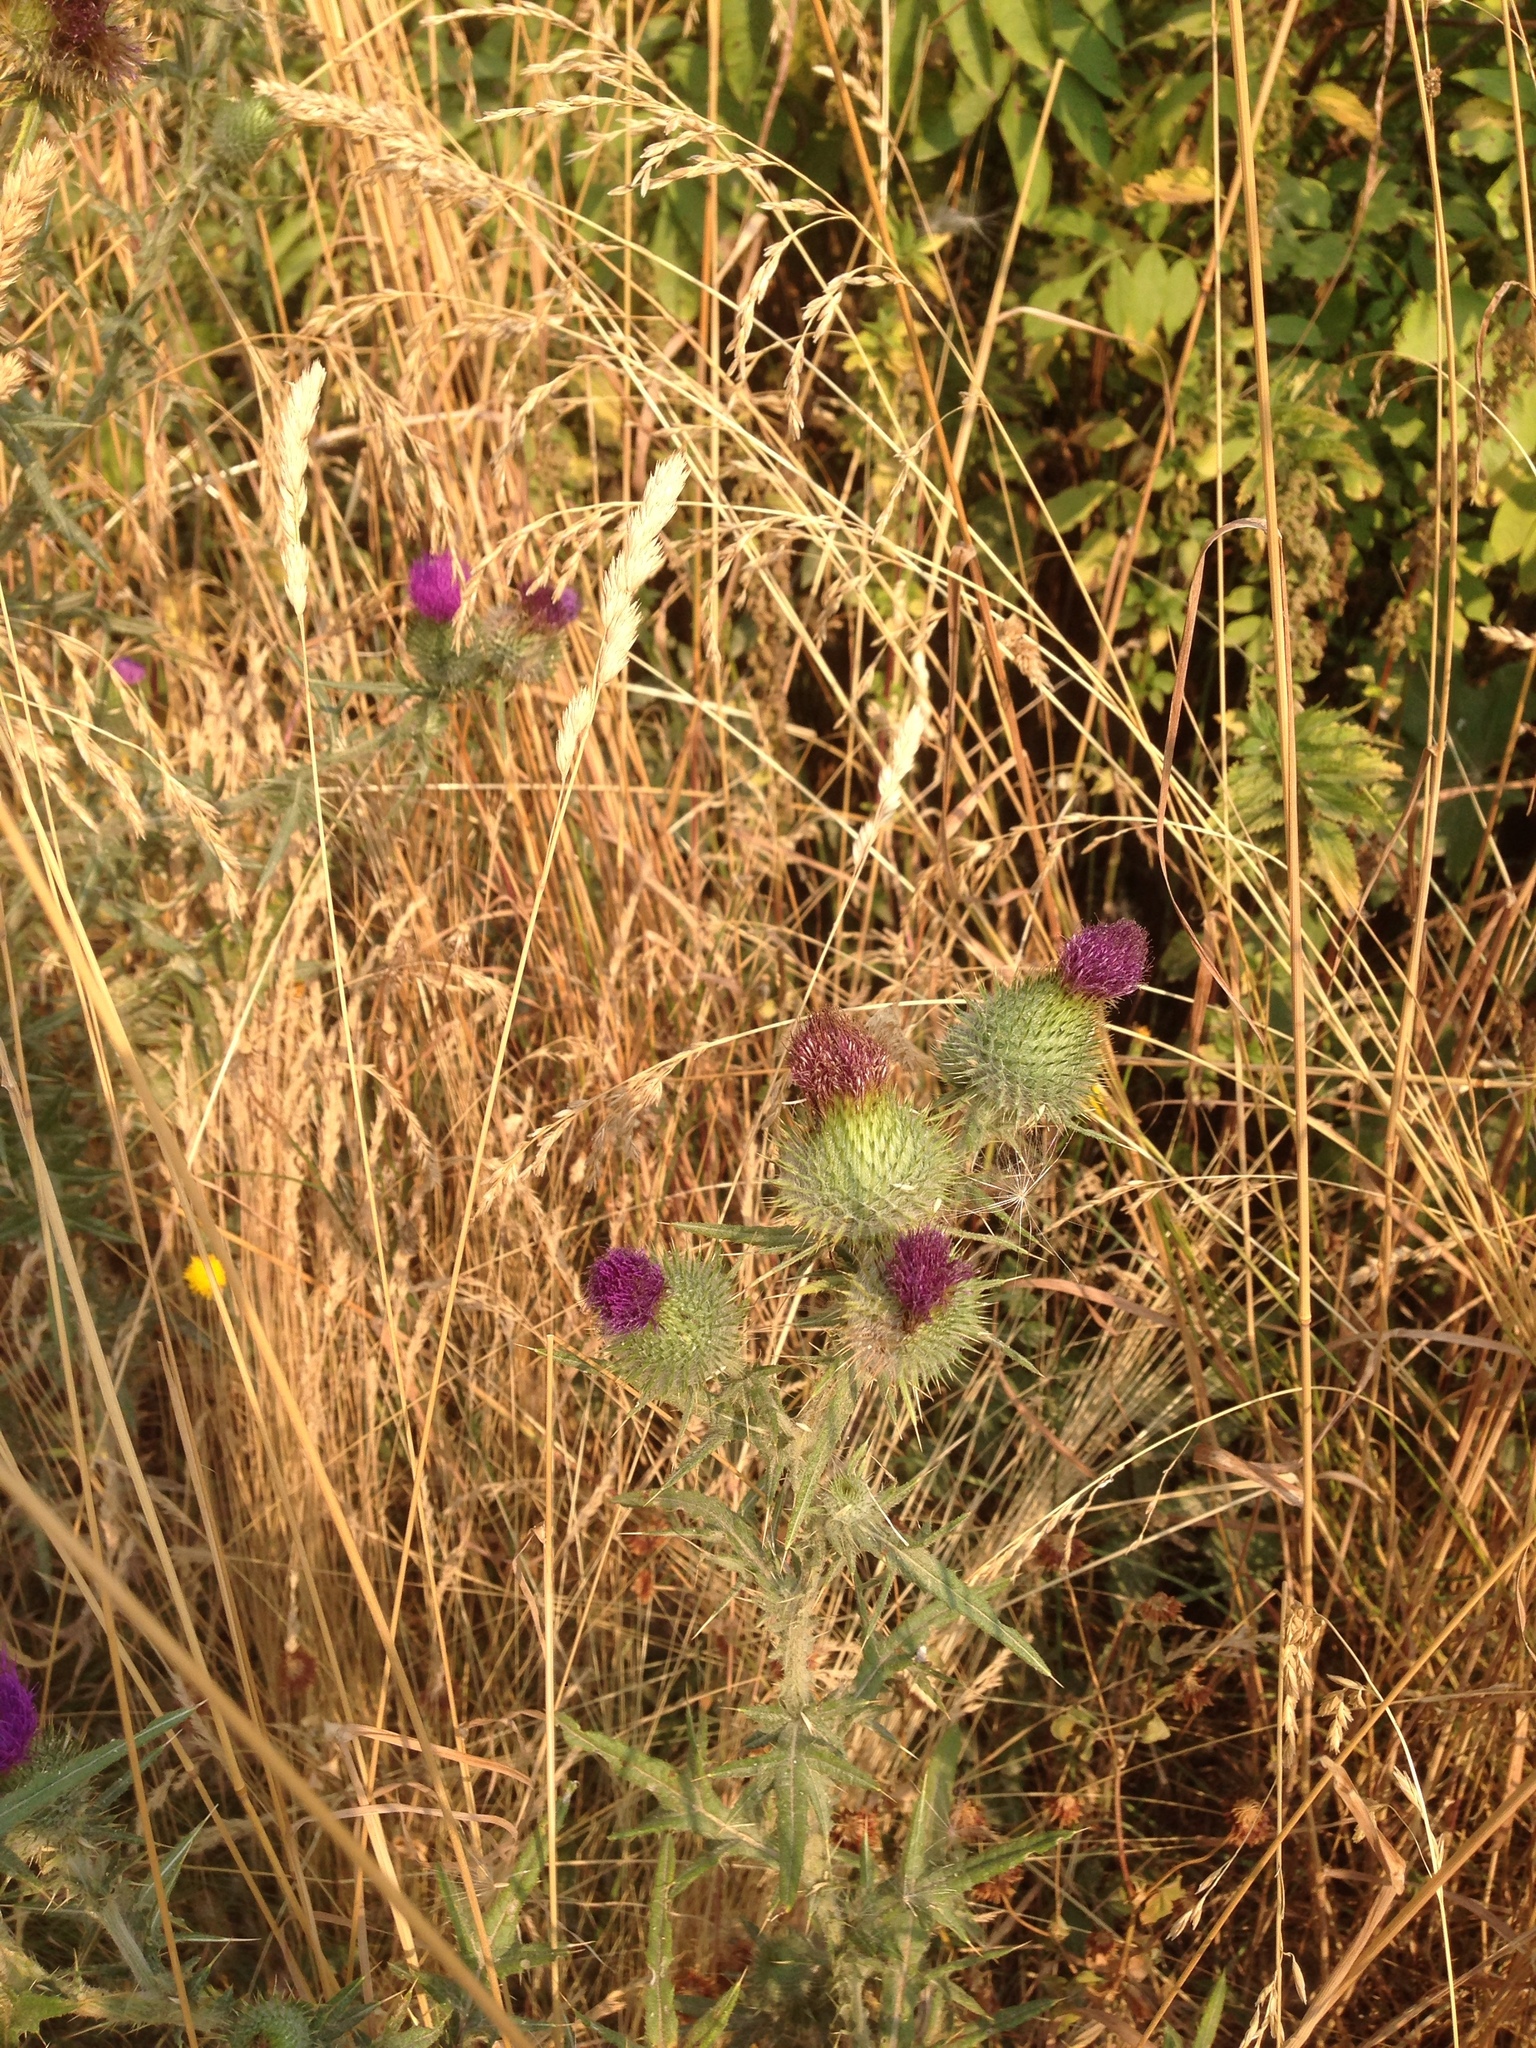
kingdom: Plantae
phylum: Tracheophyta
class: Magnoliopsida
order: Asterales
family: Asteraceae
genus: Cirsium
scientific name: Cirsium vulgare
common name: Bull thistle
